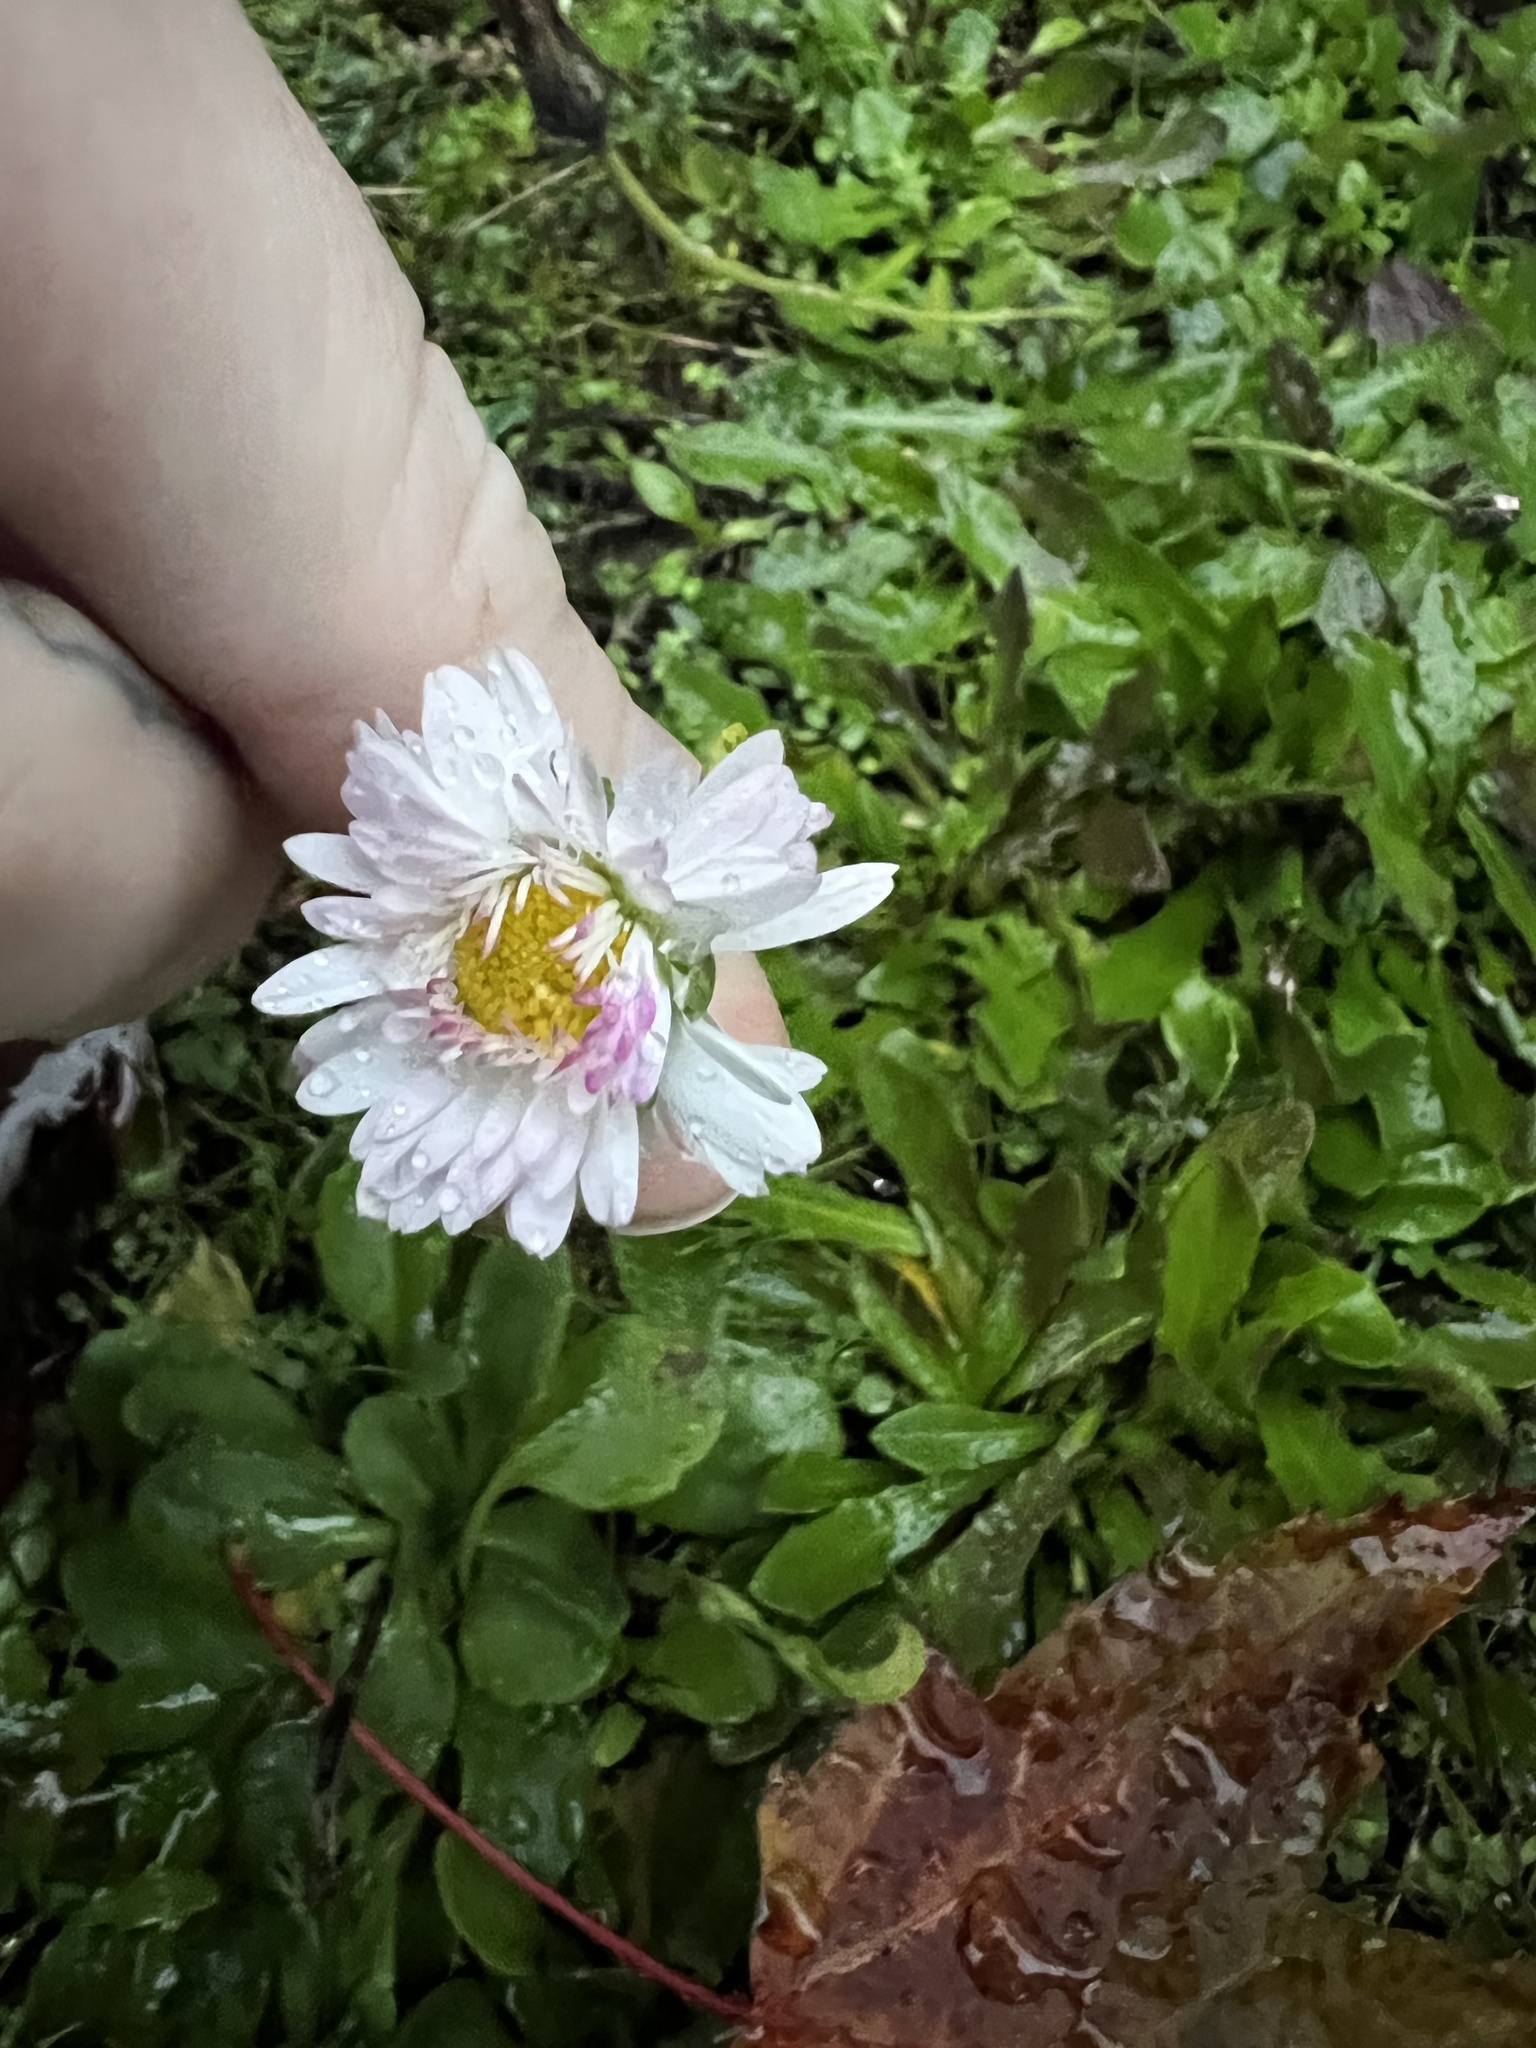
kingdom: Plantae
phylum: Tracheophyta
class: Magnoliopsida
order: Asterales
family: Asteraceae
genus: Bellis
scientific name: Bellis perennis
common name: Lawndaisy
